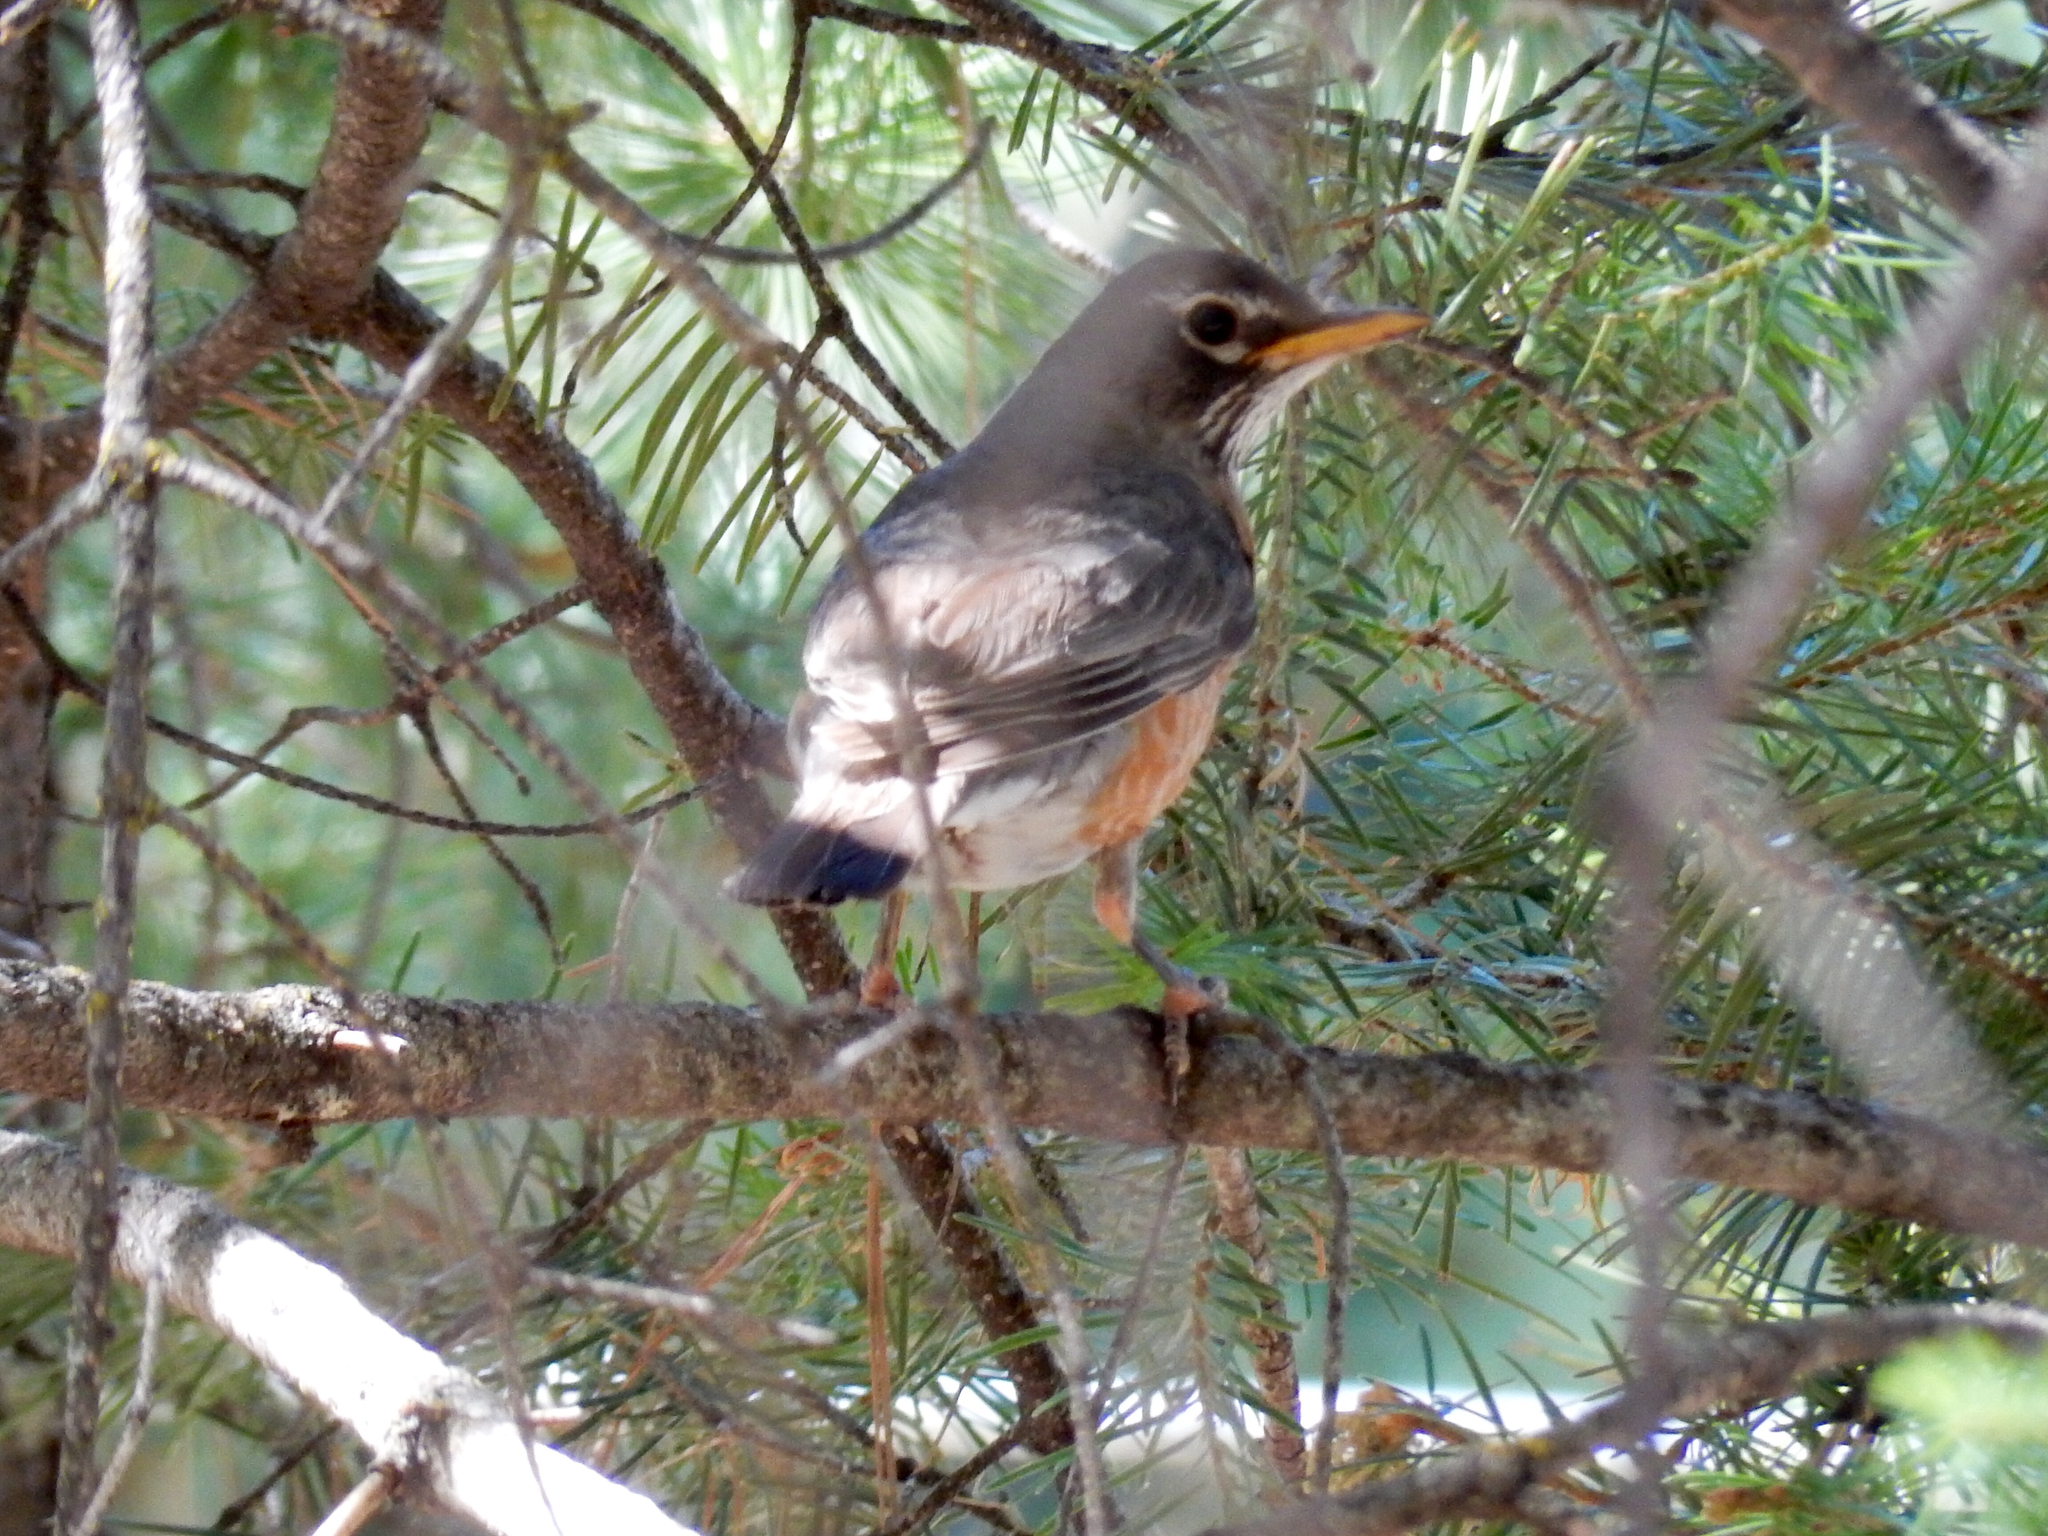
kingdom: Animalia
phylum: Chordata
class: Aves
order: Passeriformes
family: Turdidae
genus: Turdus
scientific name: Turdus migratorius
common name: American robin
